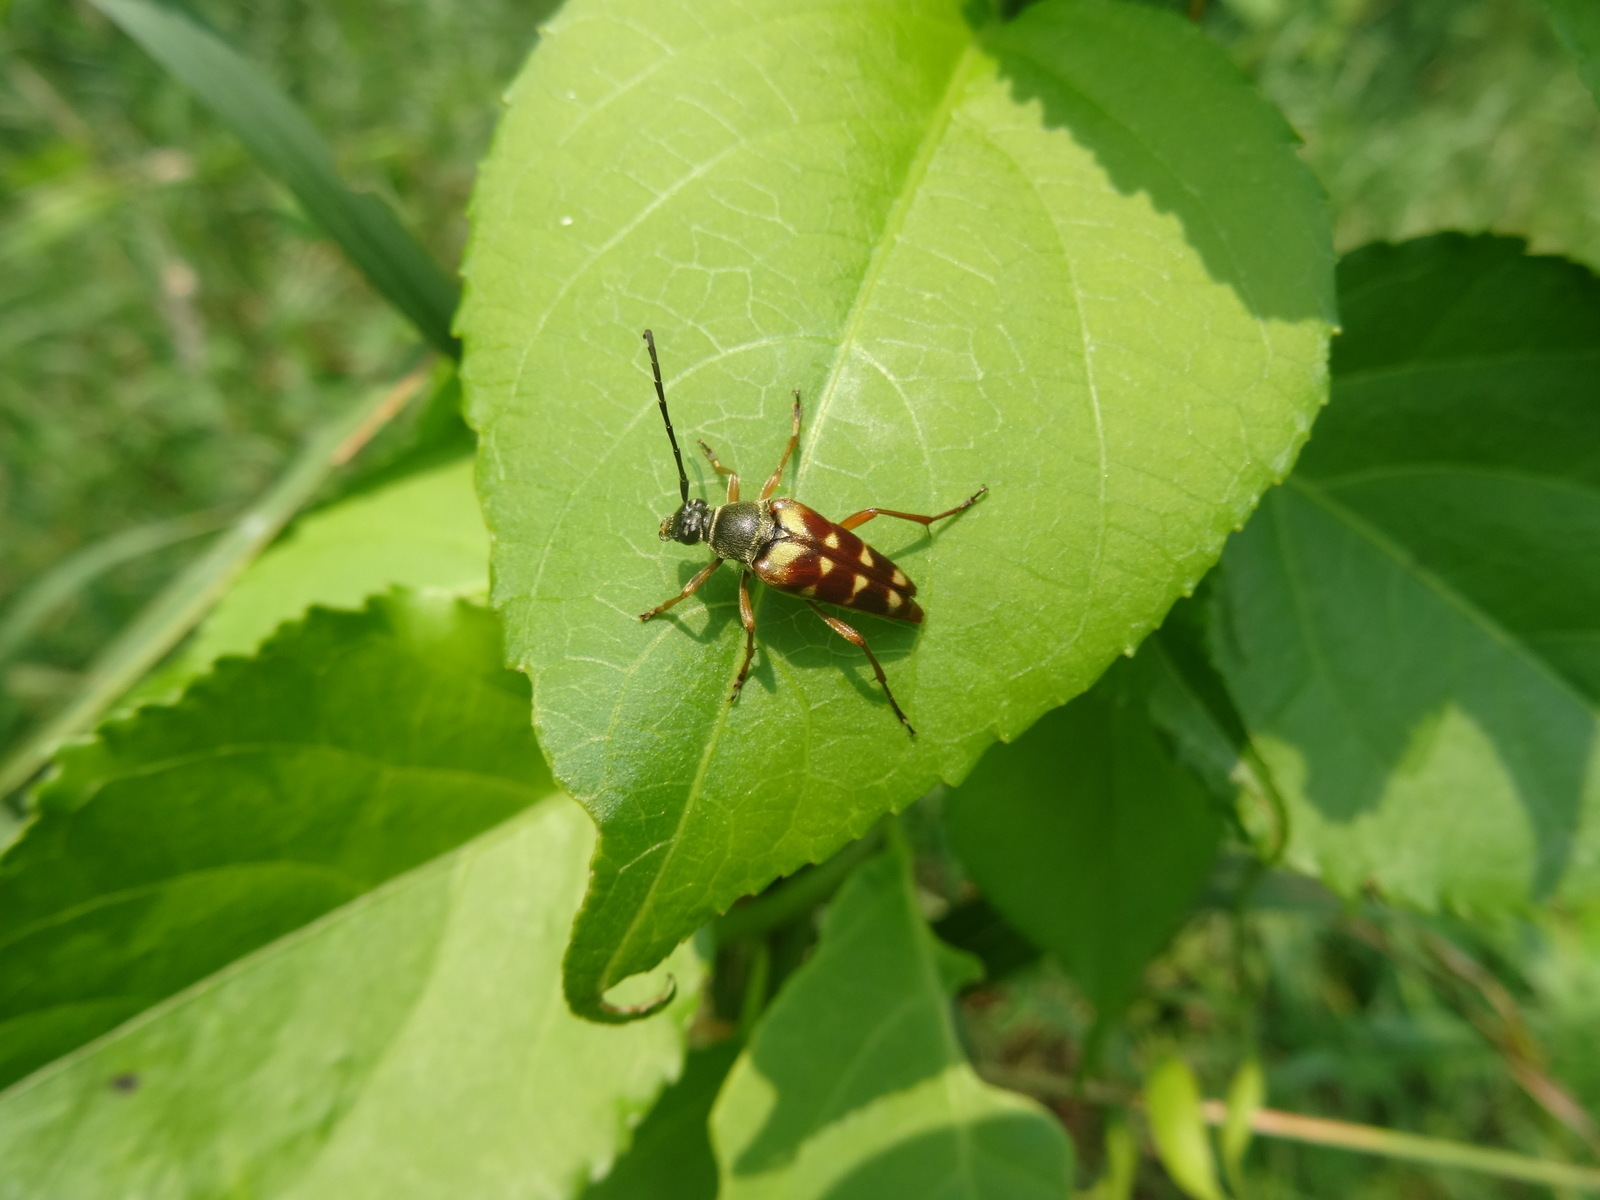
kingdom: Animalia
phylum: Arthropoda
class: Insecta
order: Coleoptera
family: Cerambycidae
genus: Typocerus
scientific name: Typocerus velutinus
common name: Banded longhorn beetle
